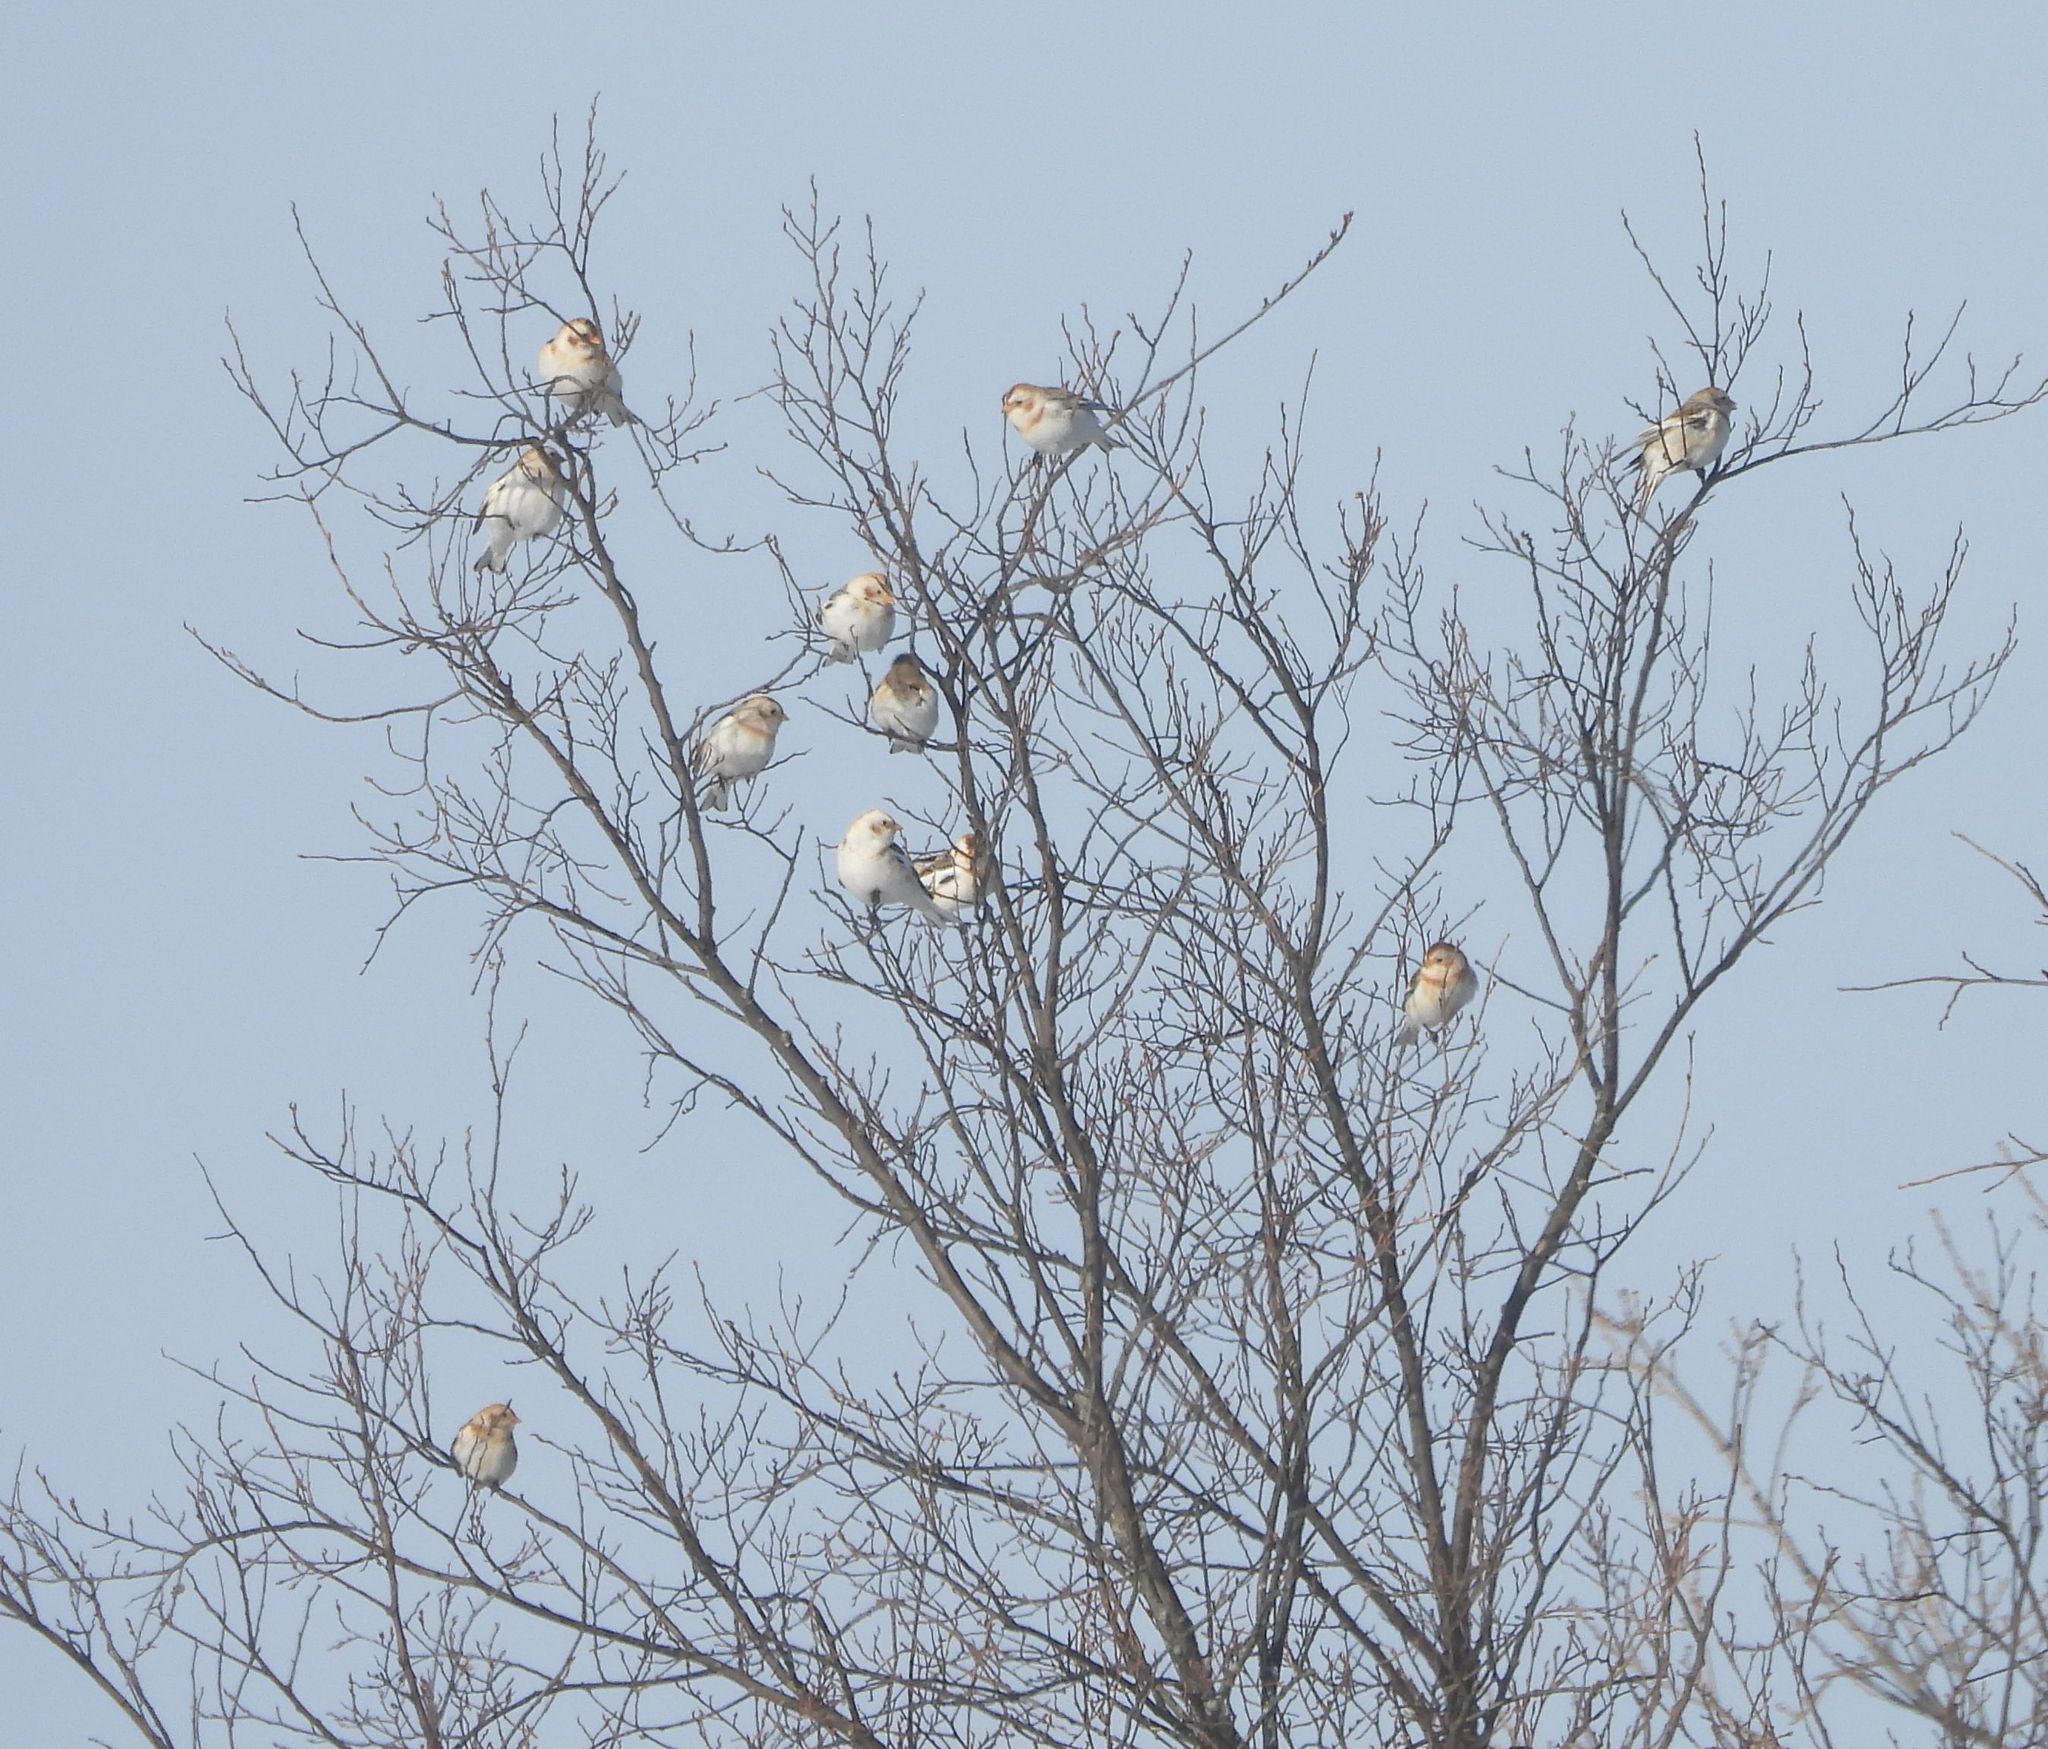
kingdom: Animalia
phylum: Chordata
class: Aves
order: Passeriformes
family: Calcariidae
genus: Plectrophenax
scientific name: Plectrophenax nivalis
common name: Snow bunting
